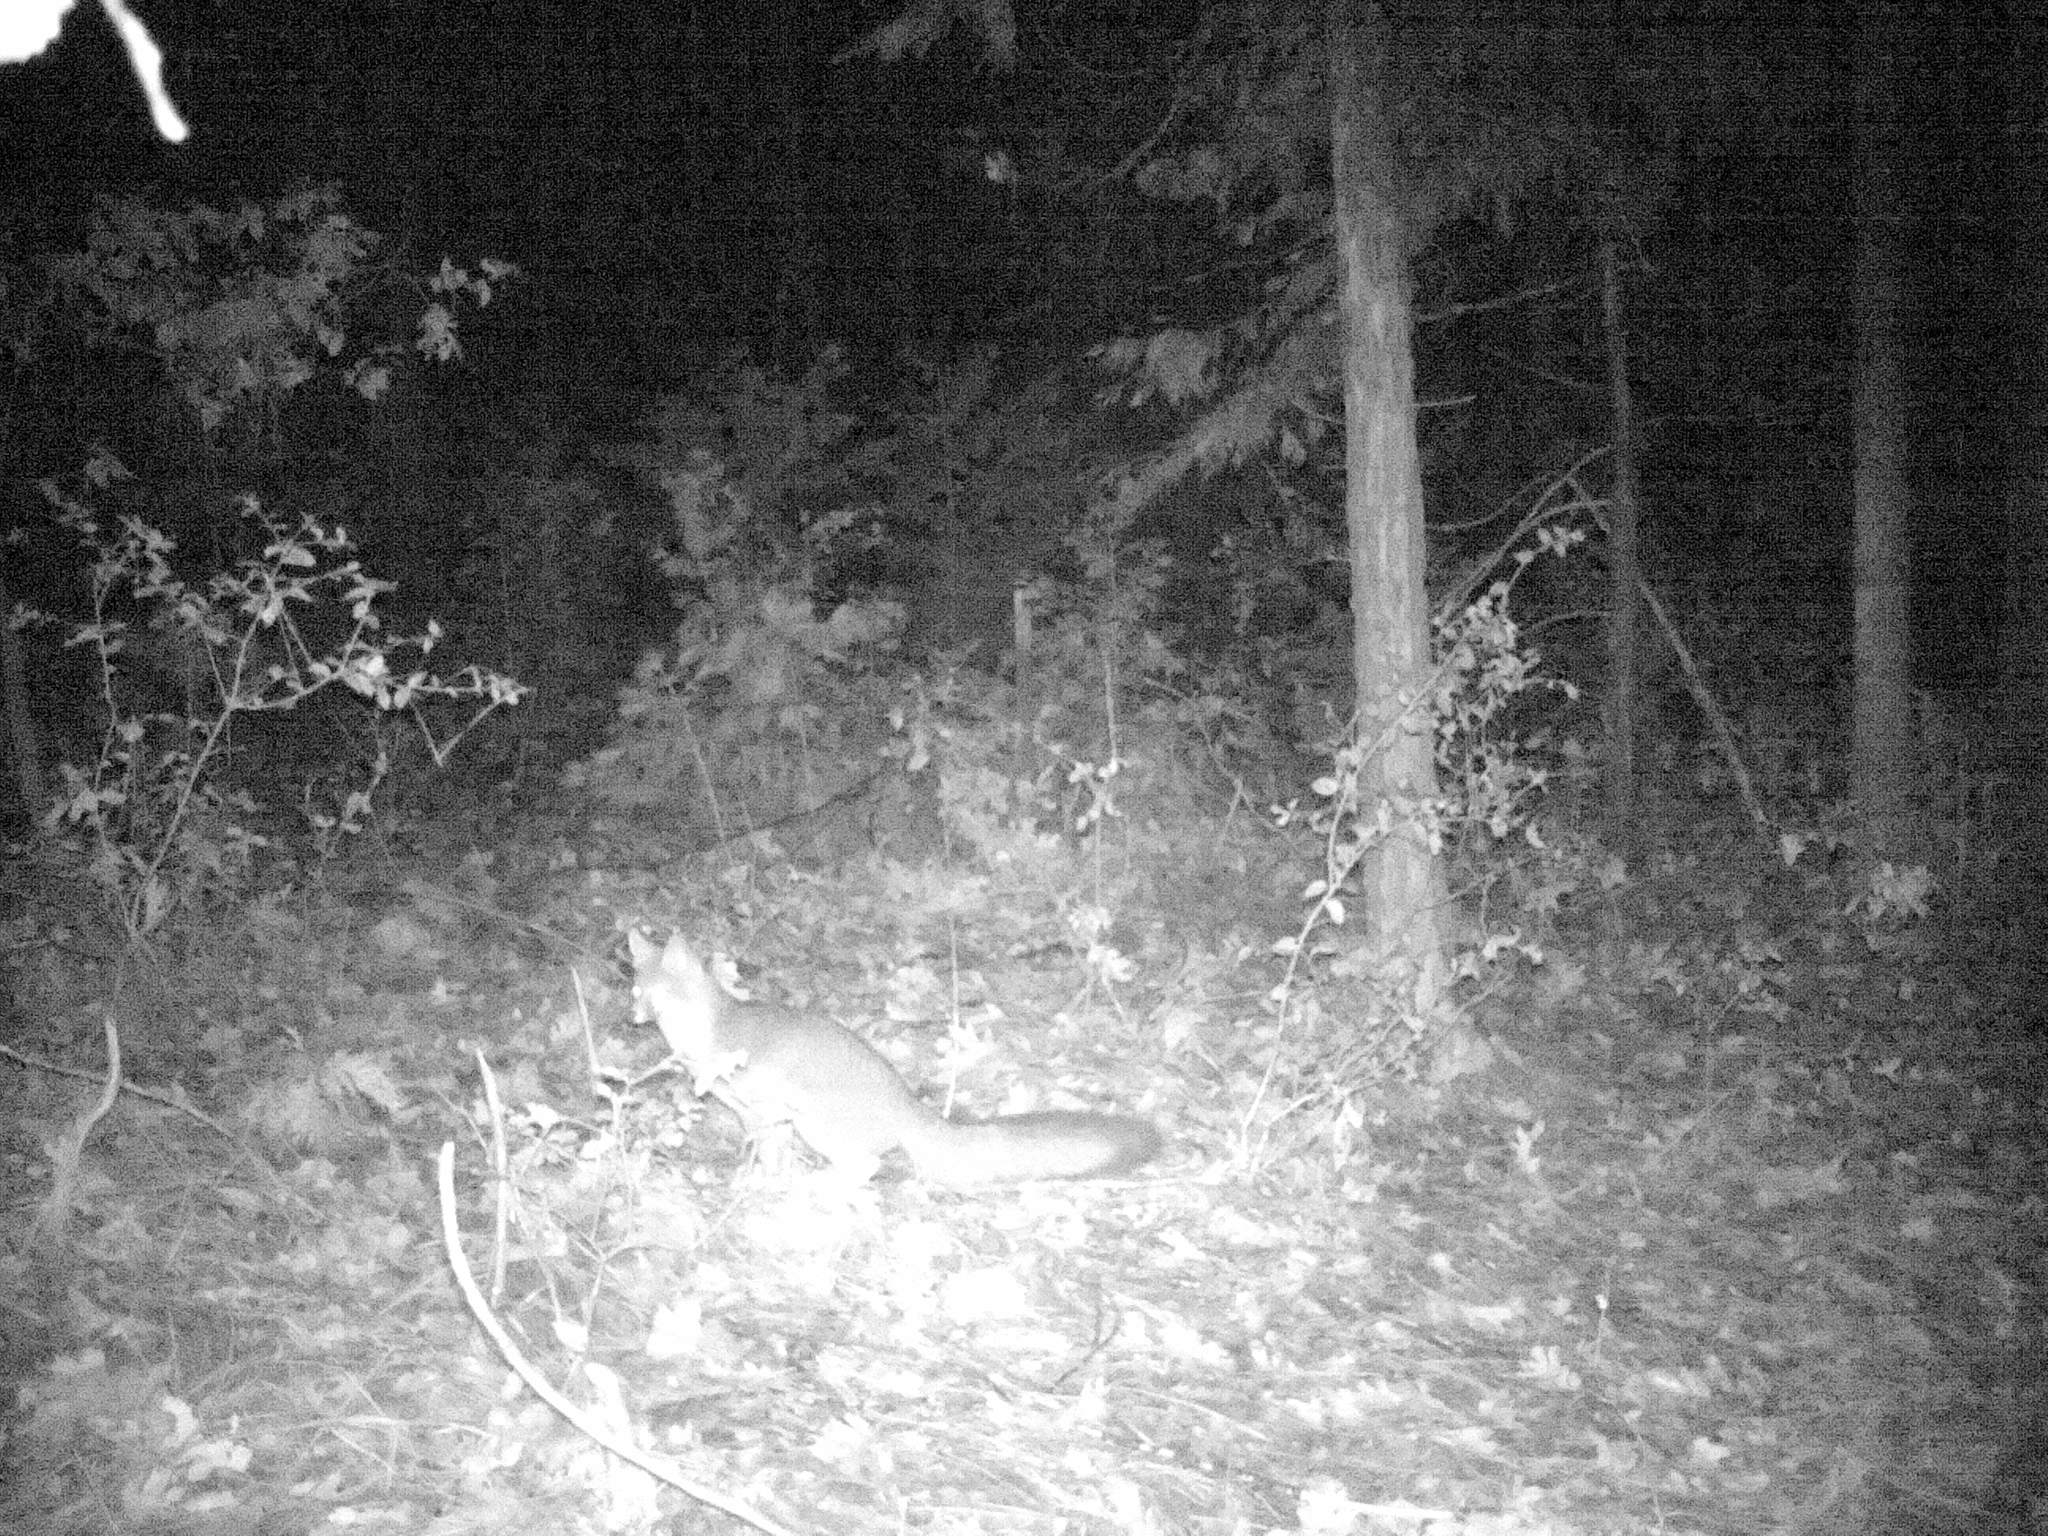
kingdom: Animalia
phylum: Chordata
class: Mammalia
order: Carnivora
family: Canidae
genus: Urocyon
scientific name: Urocyon cinereoargenteus
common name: Gray fox
